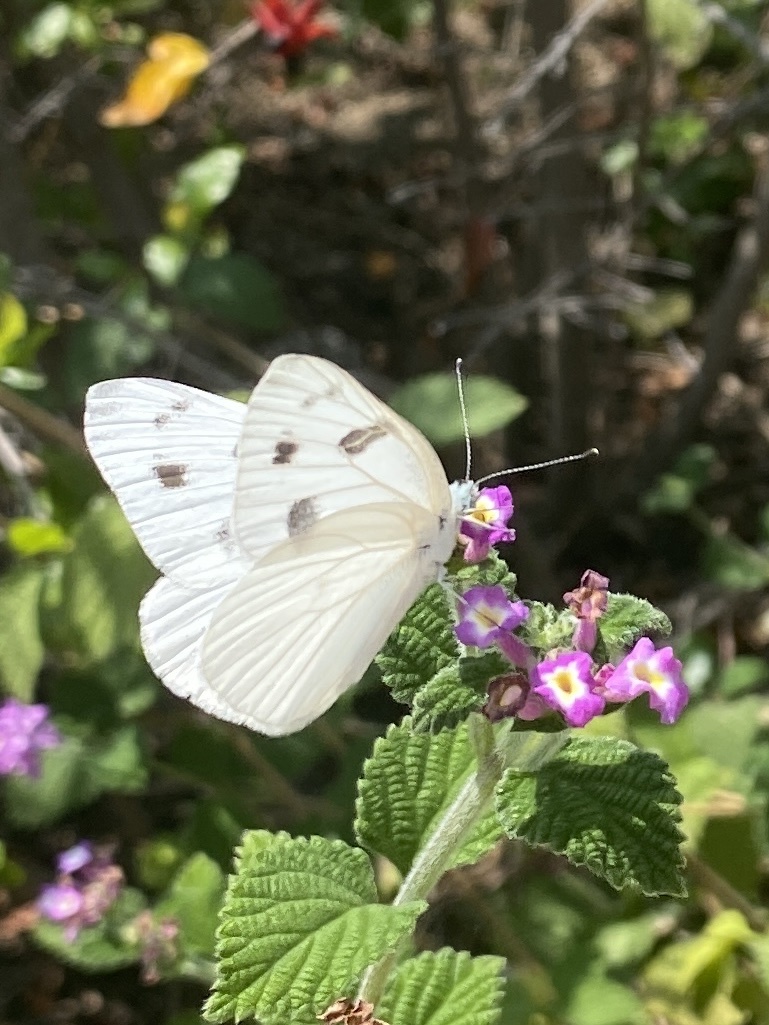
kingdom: Animalia
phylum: Arthropoda
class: Insecta
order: Lepidoptera
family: Pieridae
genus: Pontia
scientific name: Pontia protodice
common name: Checkered white
